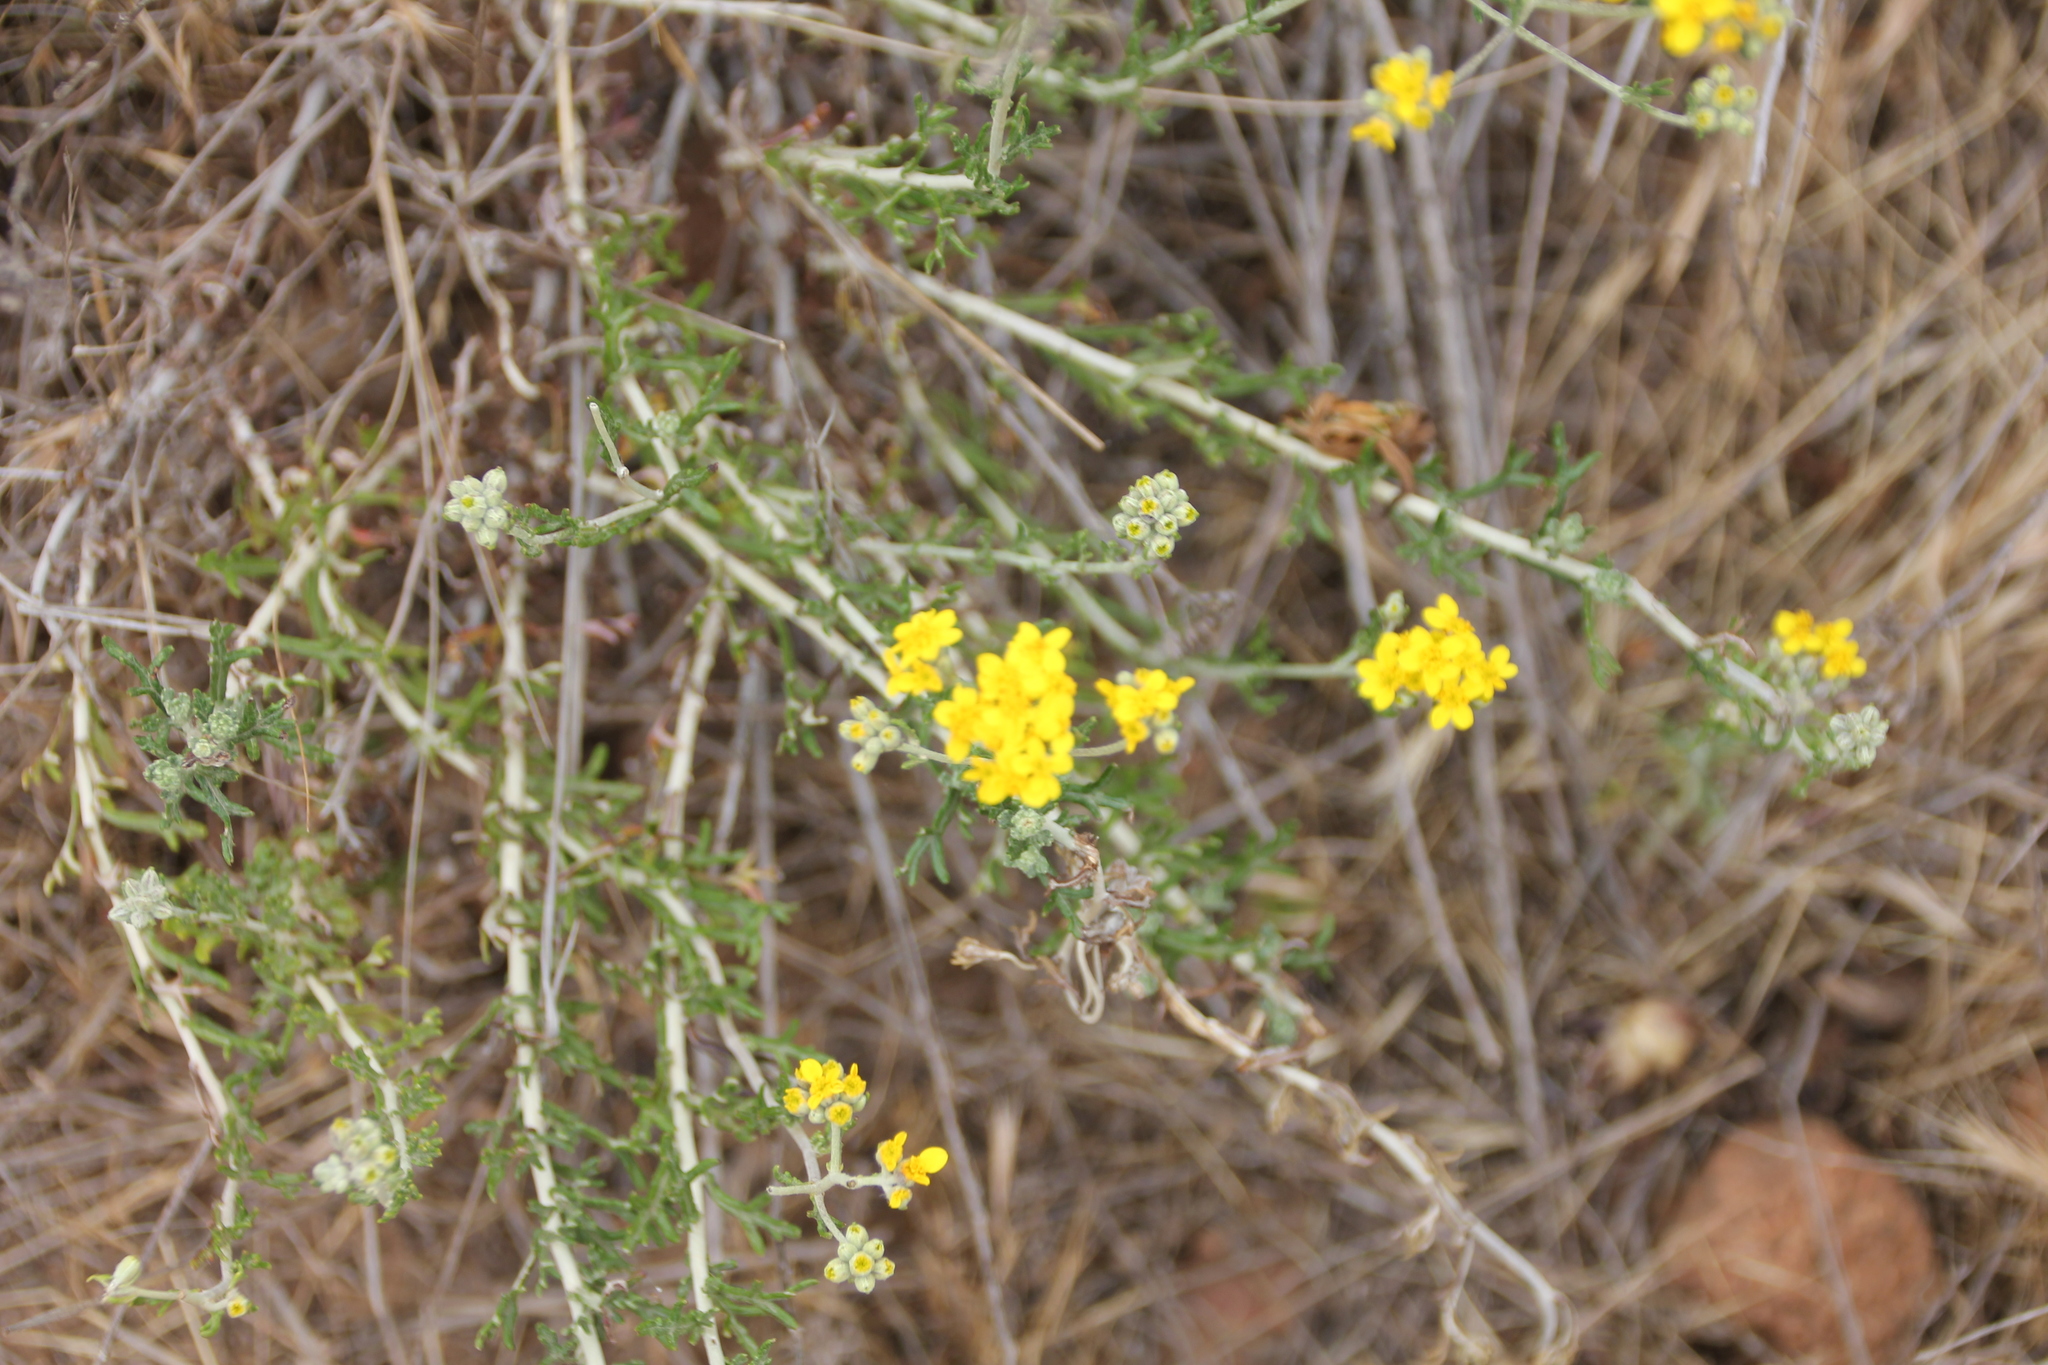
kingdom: Plantae
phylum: Tracheophyta
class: Magnoliopsida
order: Asterales
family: Asteraceae
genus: Eriophyllum
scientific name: Eriophyllum confertiflorum
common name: Golden-yarrow
